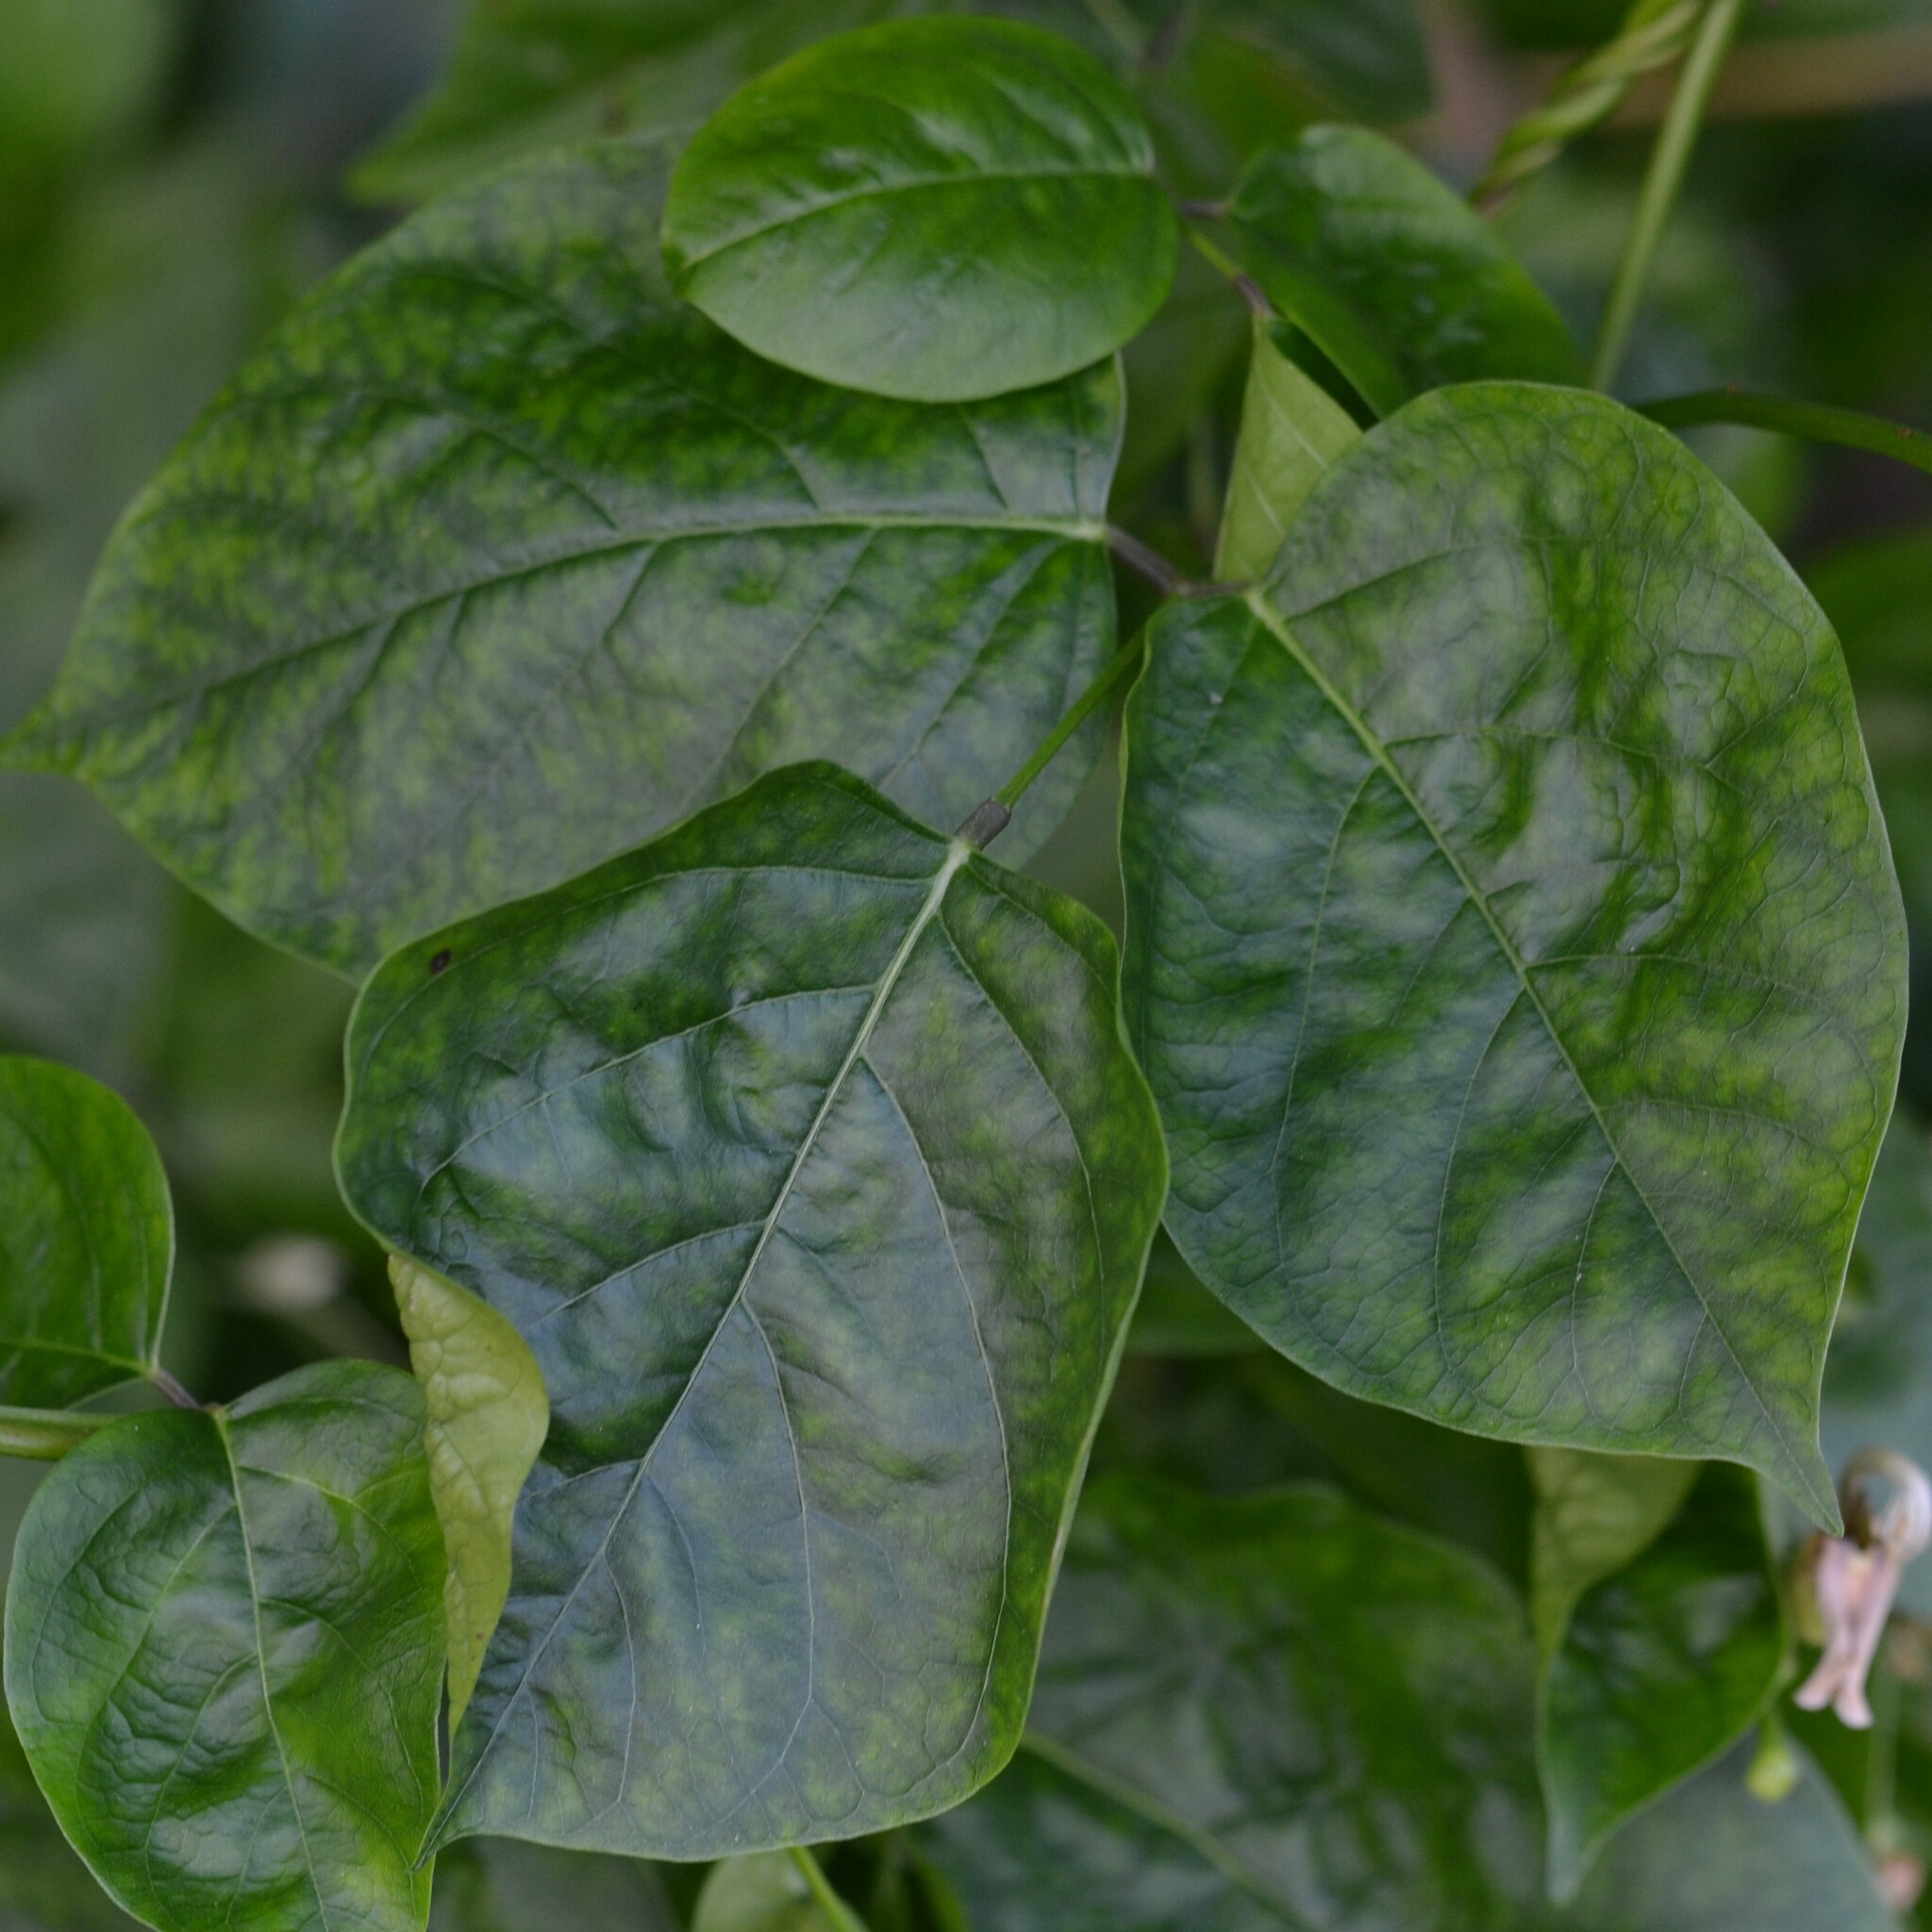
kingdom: Plantae
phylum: Tracheophyta
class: Magnoliopsida
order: Fabales
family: Fabaceae
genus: Canavalia
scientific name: Canavalia cathartica
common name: Maunaloa
